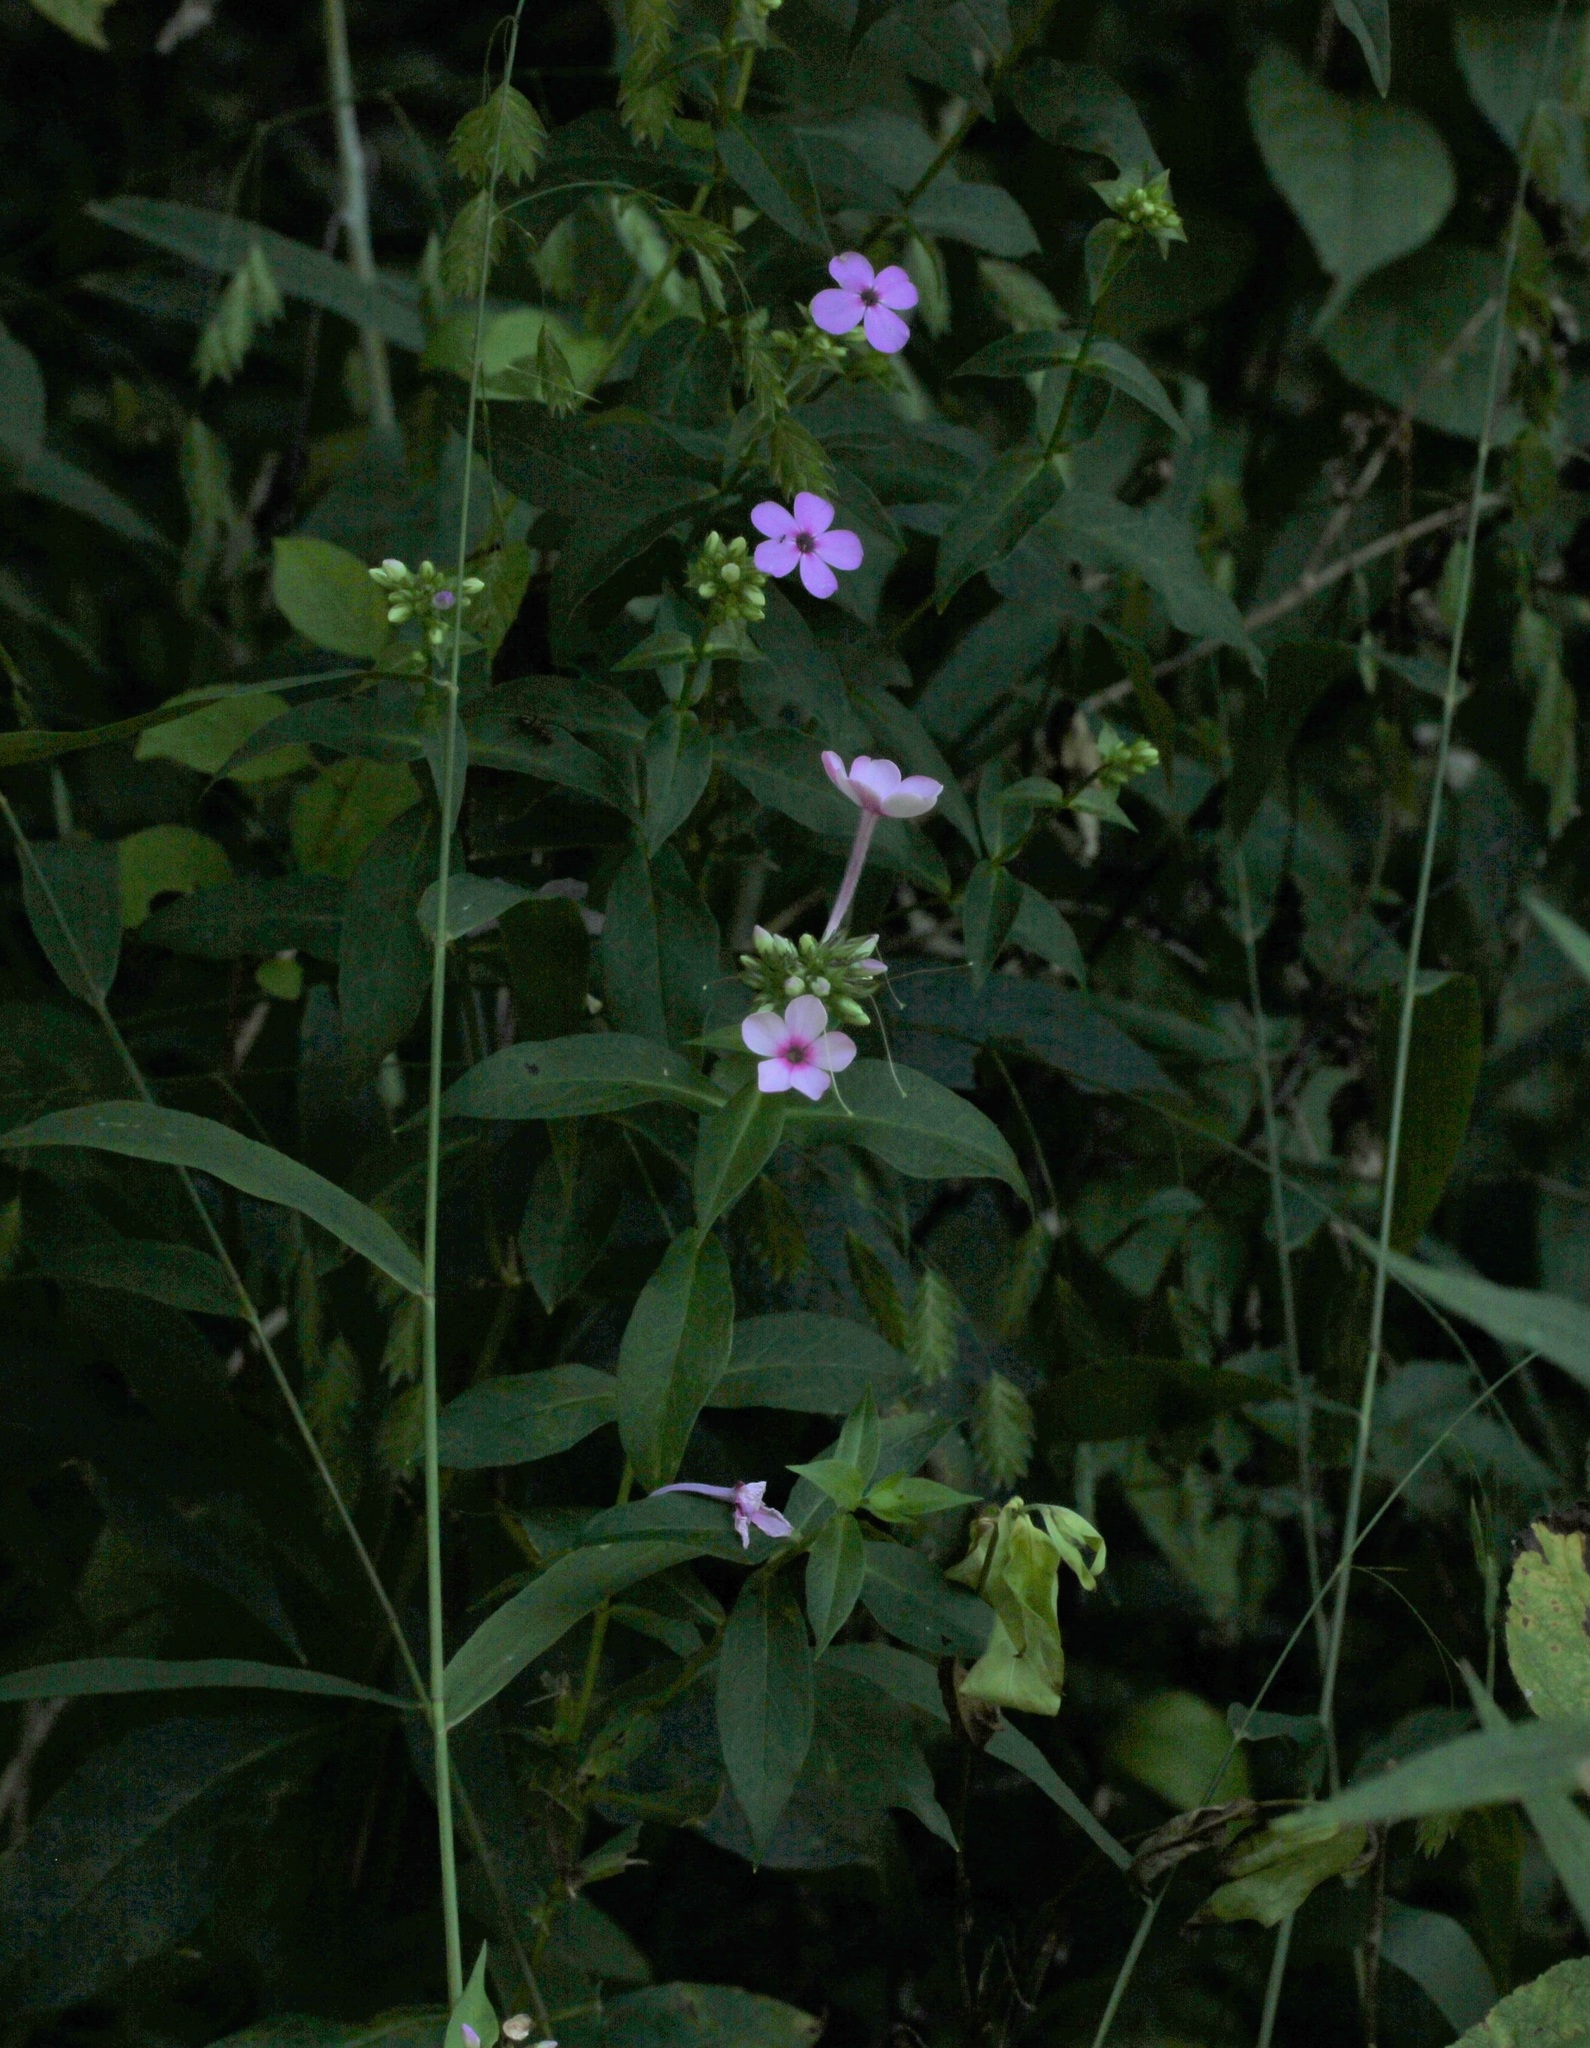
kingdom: Plantae
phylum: Tracheophyta
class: Magnoliopsida
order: Ericales
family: Polemoniaceae
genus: Phlox
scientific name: Phlox paniculata
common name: Fall phlox
